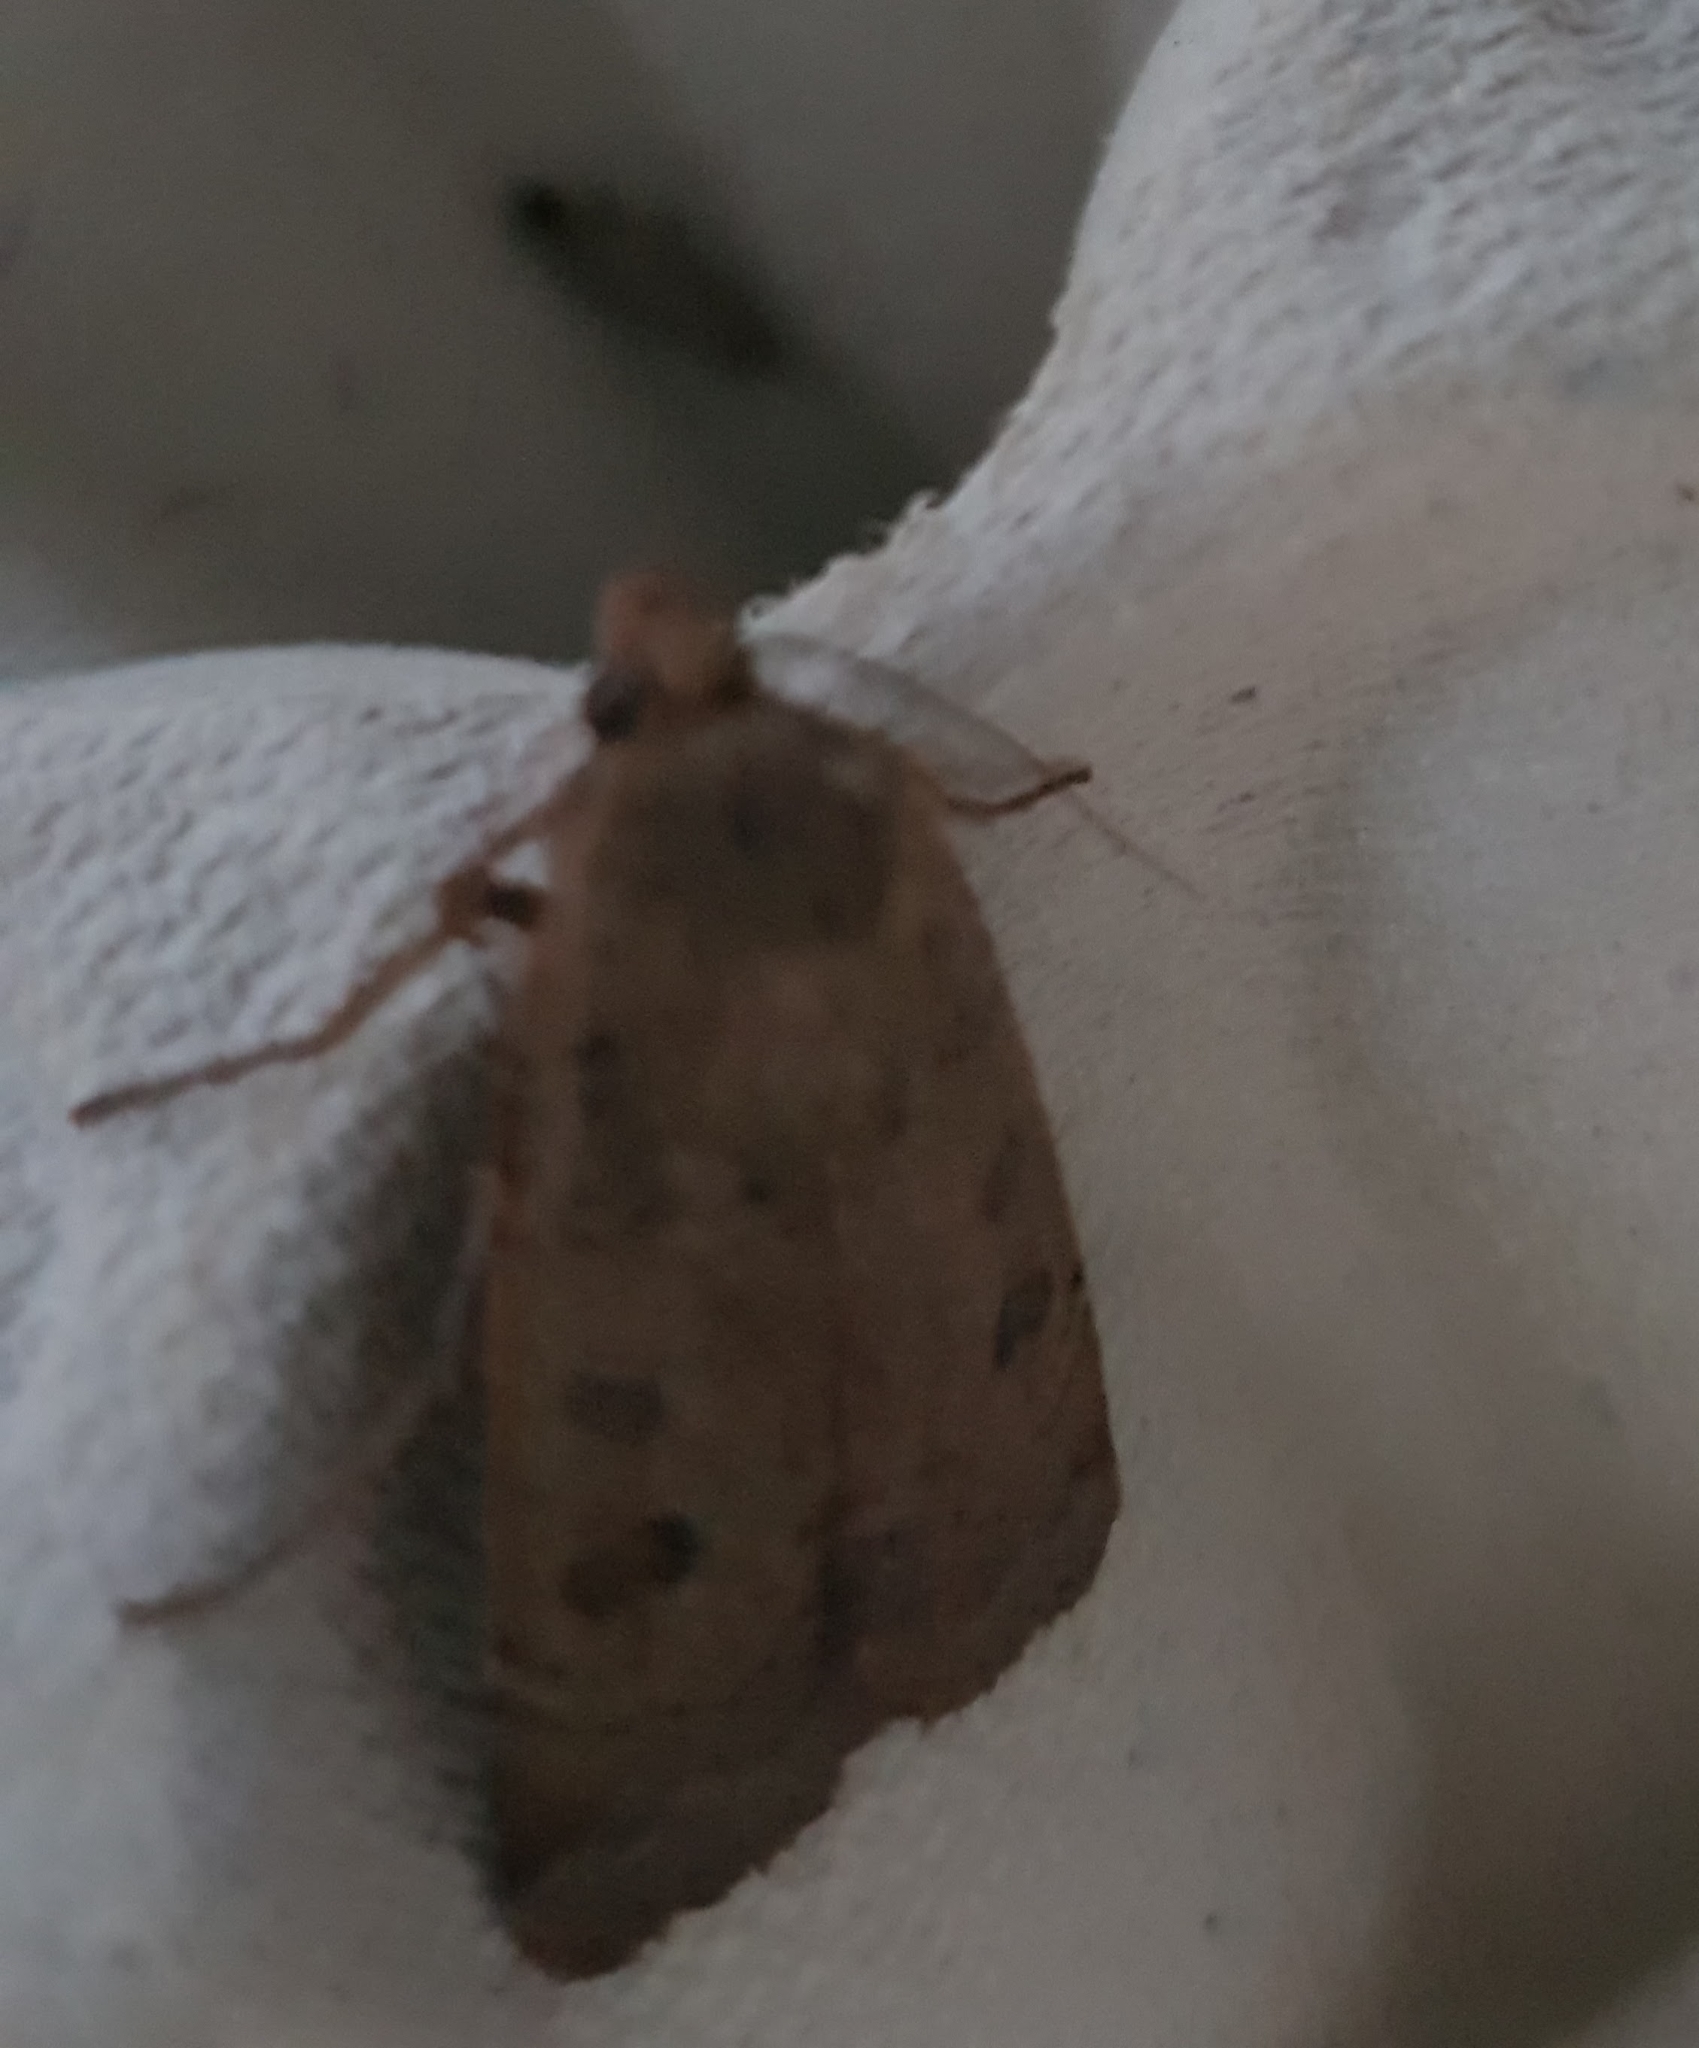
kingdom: Animalia
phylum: Arthropoda
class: Insecta
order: Lepidoptera
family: Noctuidae
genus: Noctua
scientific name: Noctua comes
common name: Lesser yellow underwing
